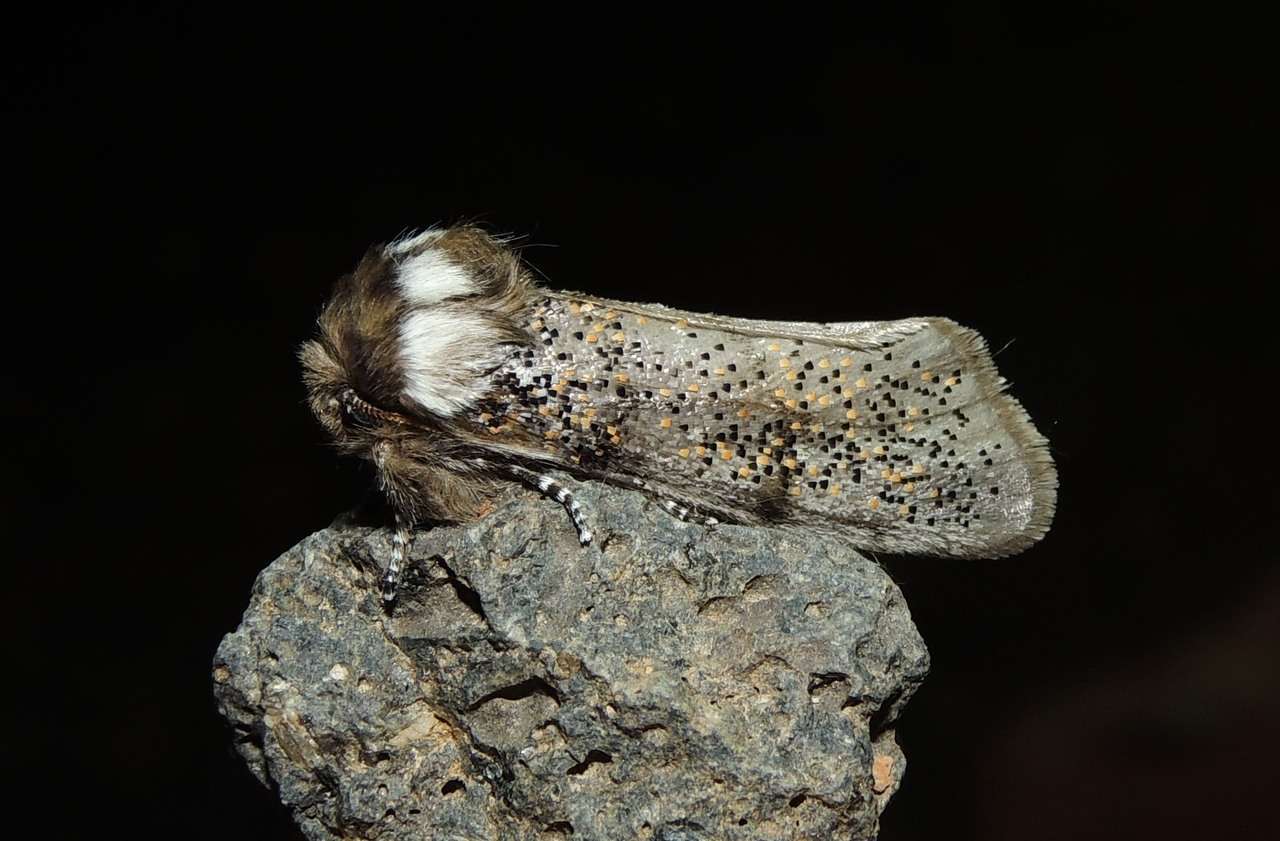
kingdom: Animalia
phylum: Arthropoda
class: Insecta
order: Lepidoptera
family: Oenosandridae
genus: Oenosandra
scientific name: Oenosandra boisduvalii
